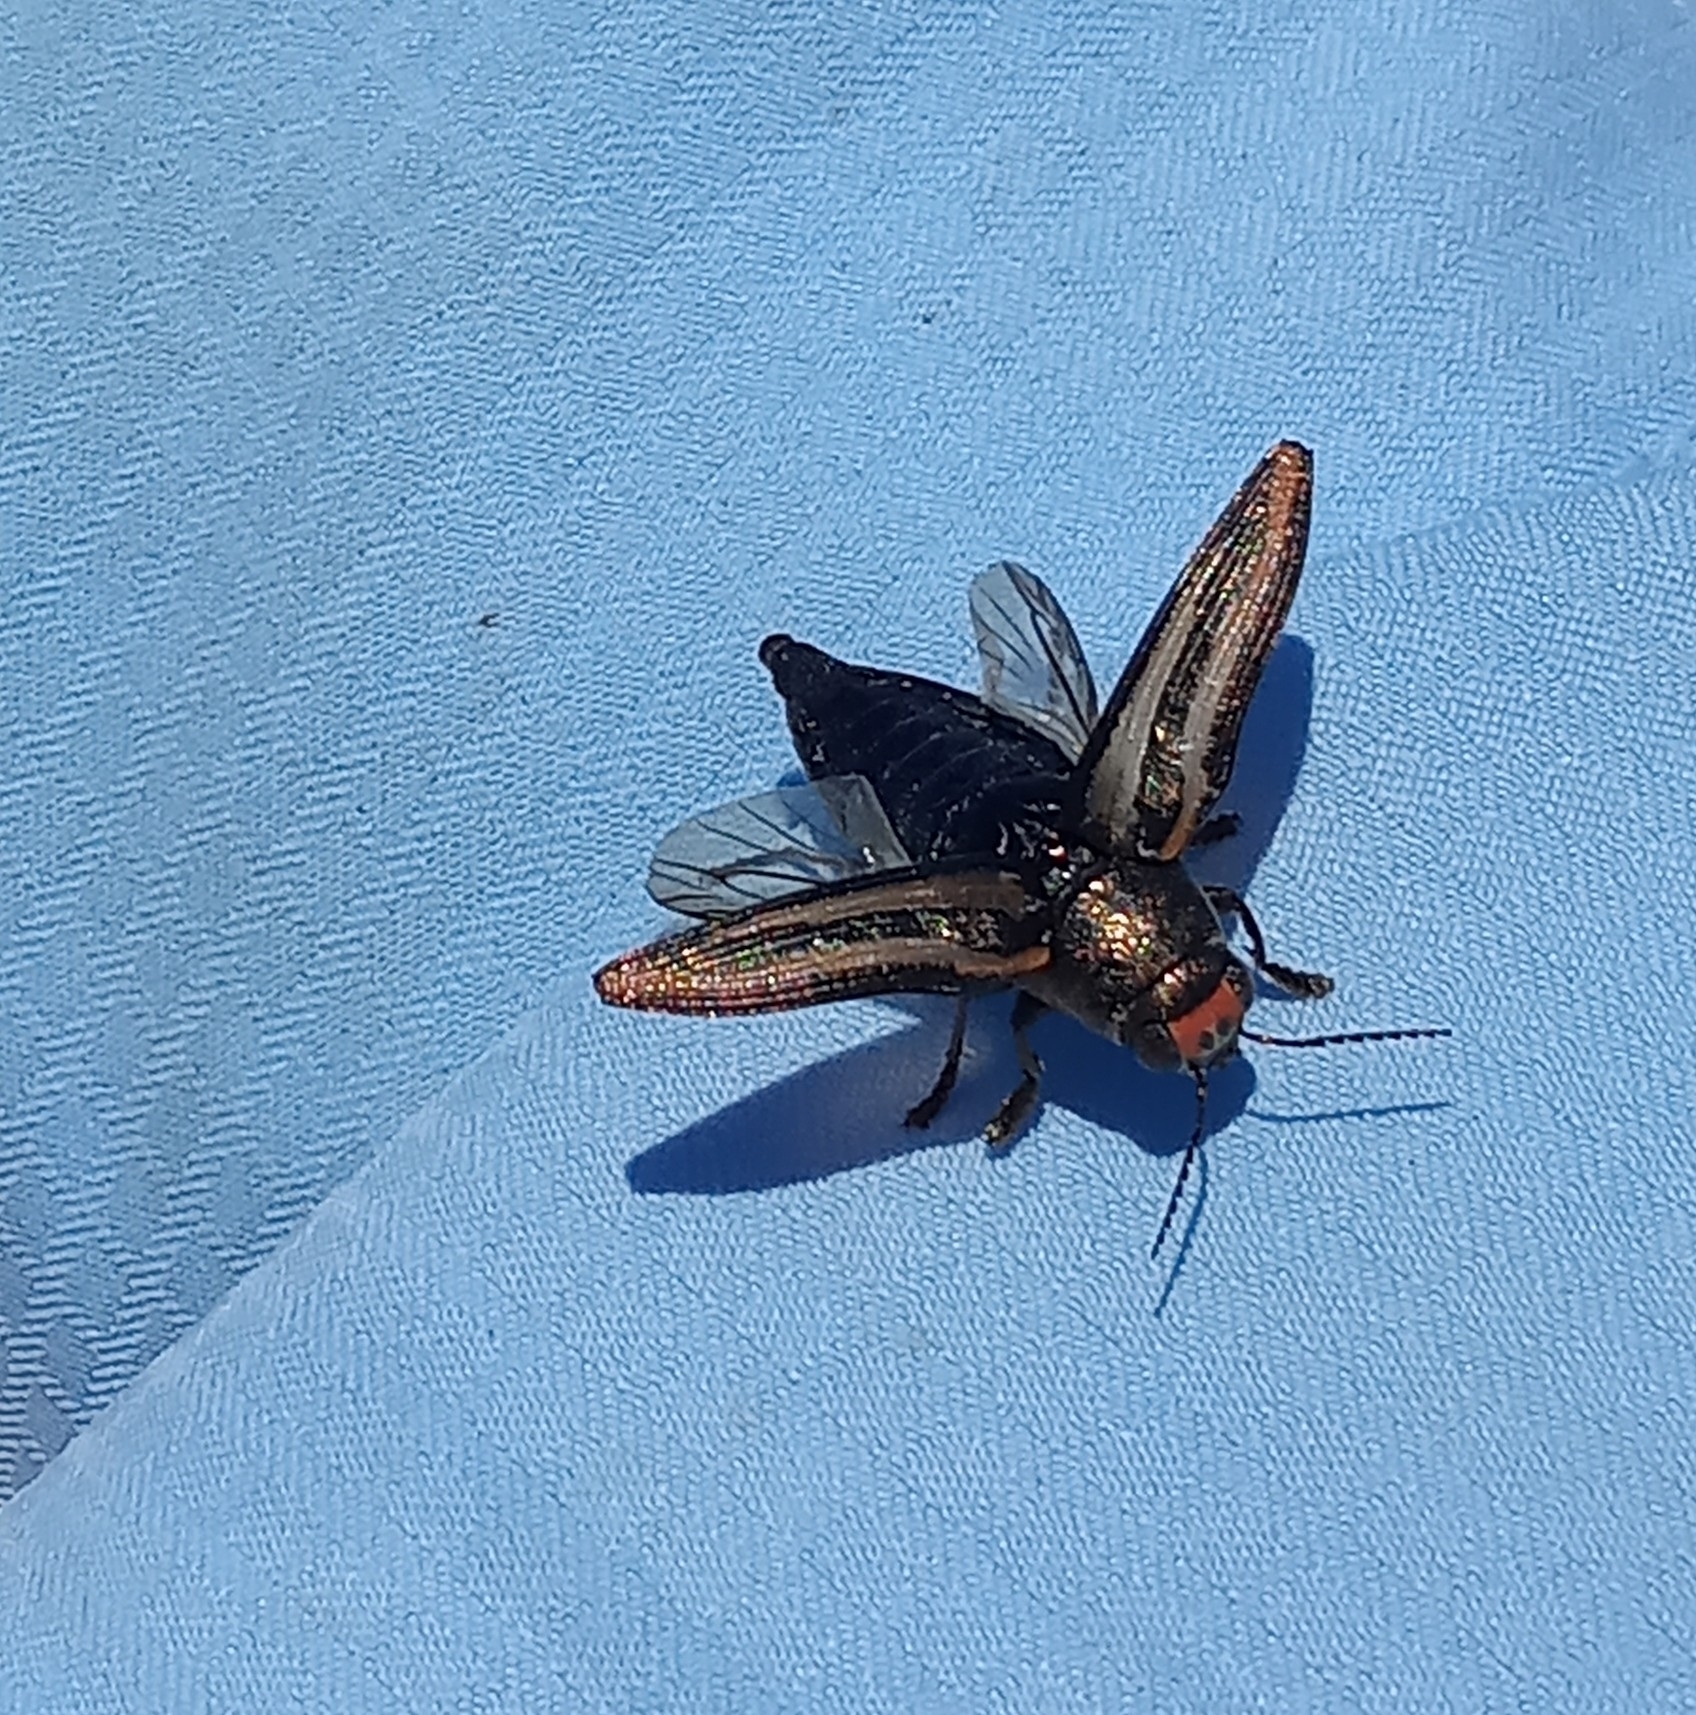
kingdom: Animalia
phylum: Arthropoda
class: Insecta
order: Coleoptera
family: Buprestidae
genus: Buprestis
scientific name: Buprestis lineata
